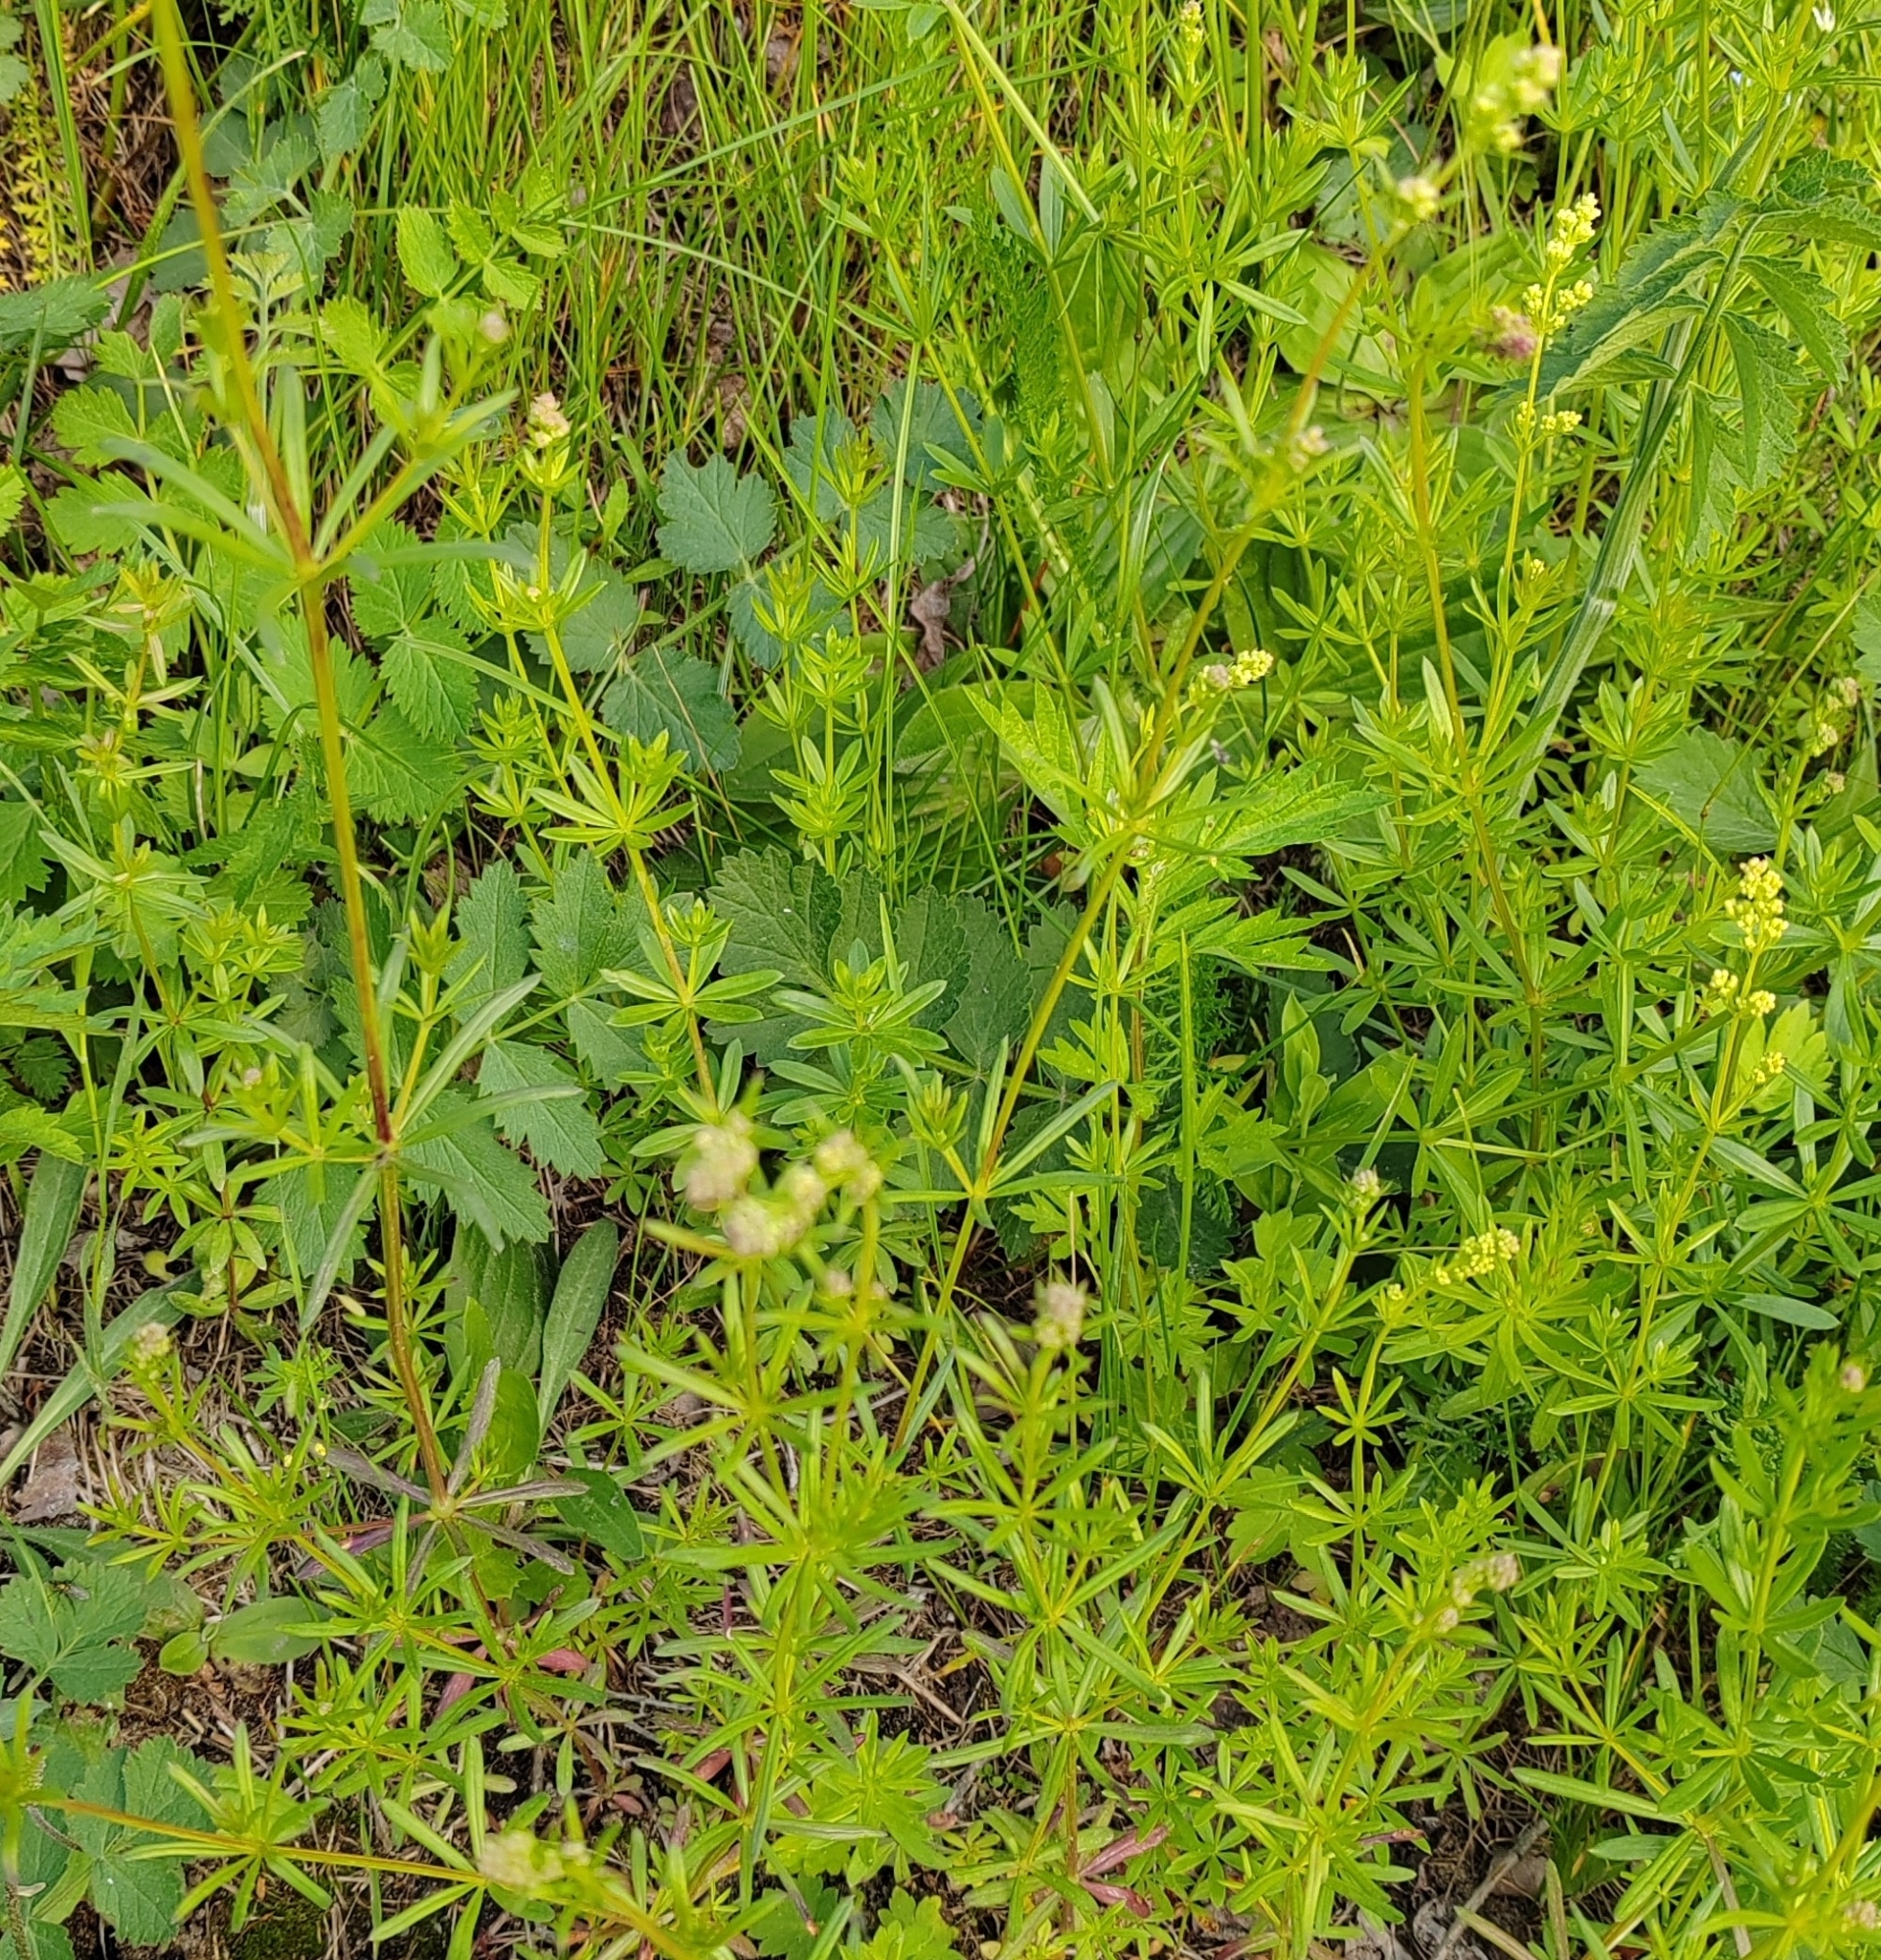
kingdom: Plantae
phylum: Tracheophyta
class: Magnoliopsida
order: Gentianales
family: Rubiaceae
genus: Galium
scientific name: Galium mollugo
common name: Hedge bedstraw
